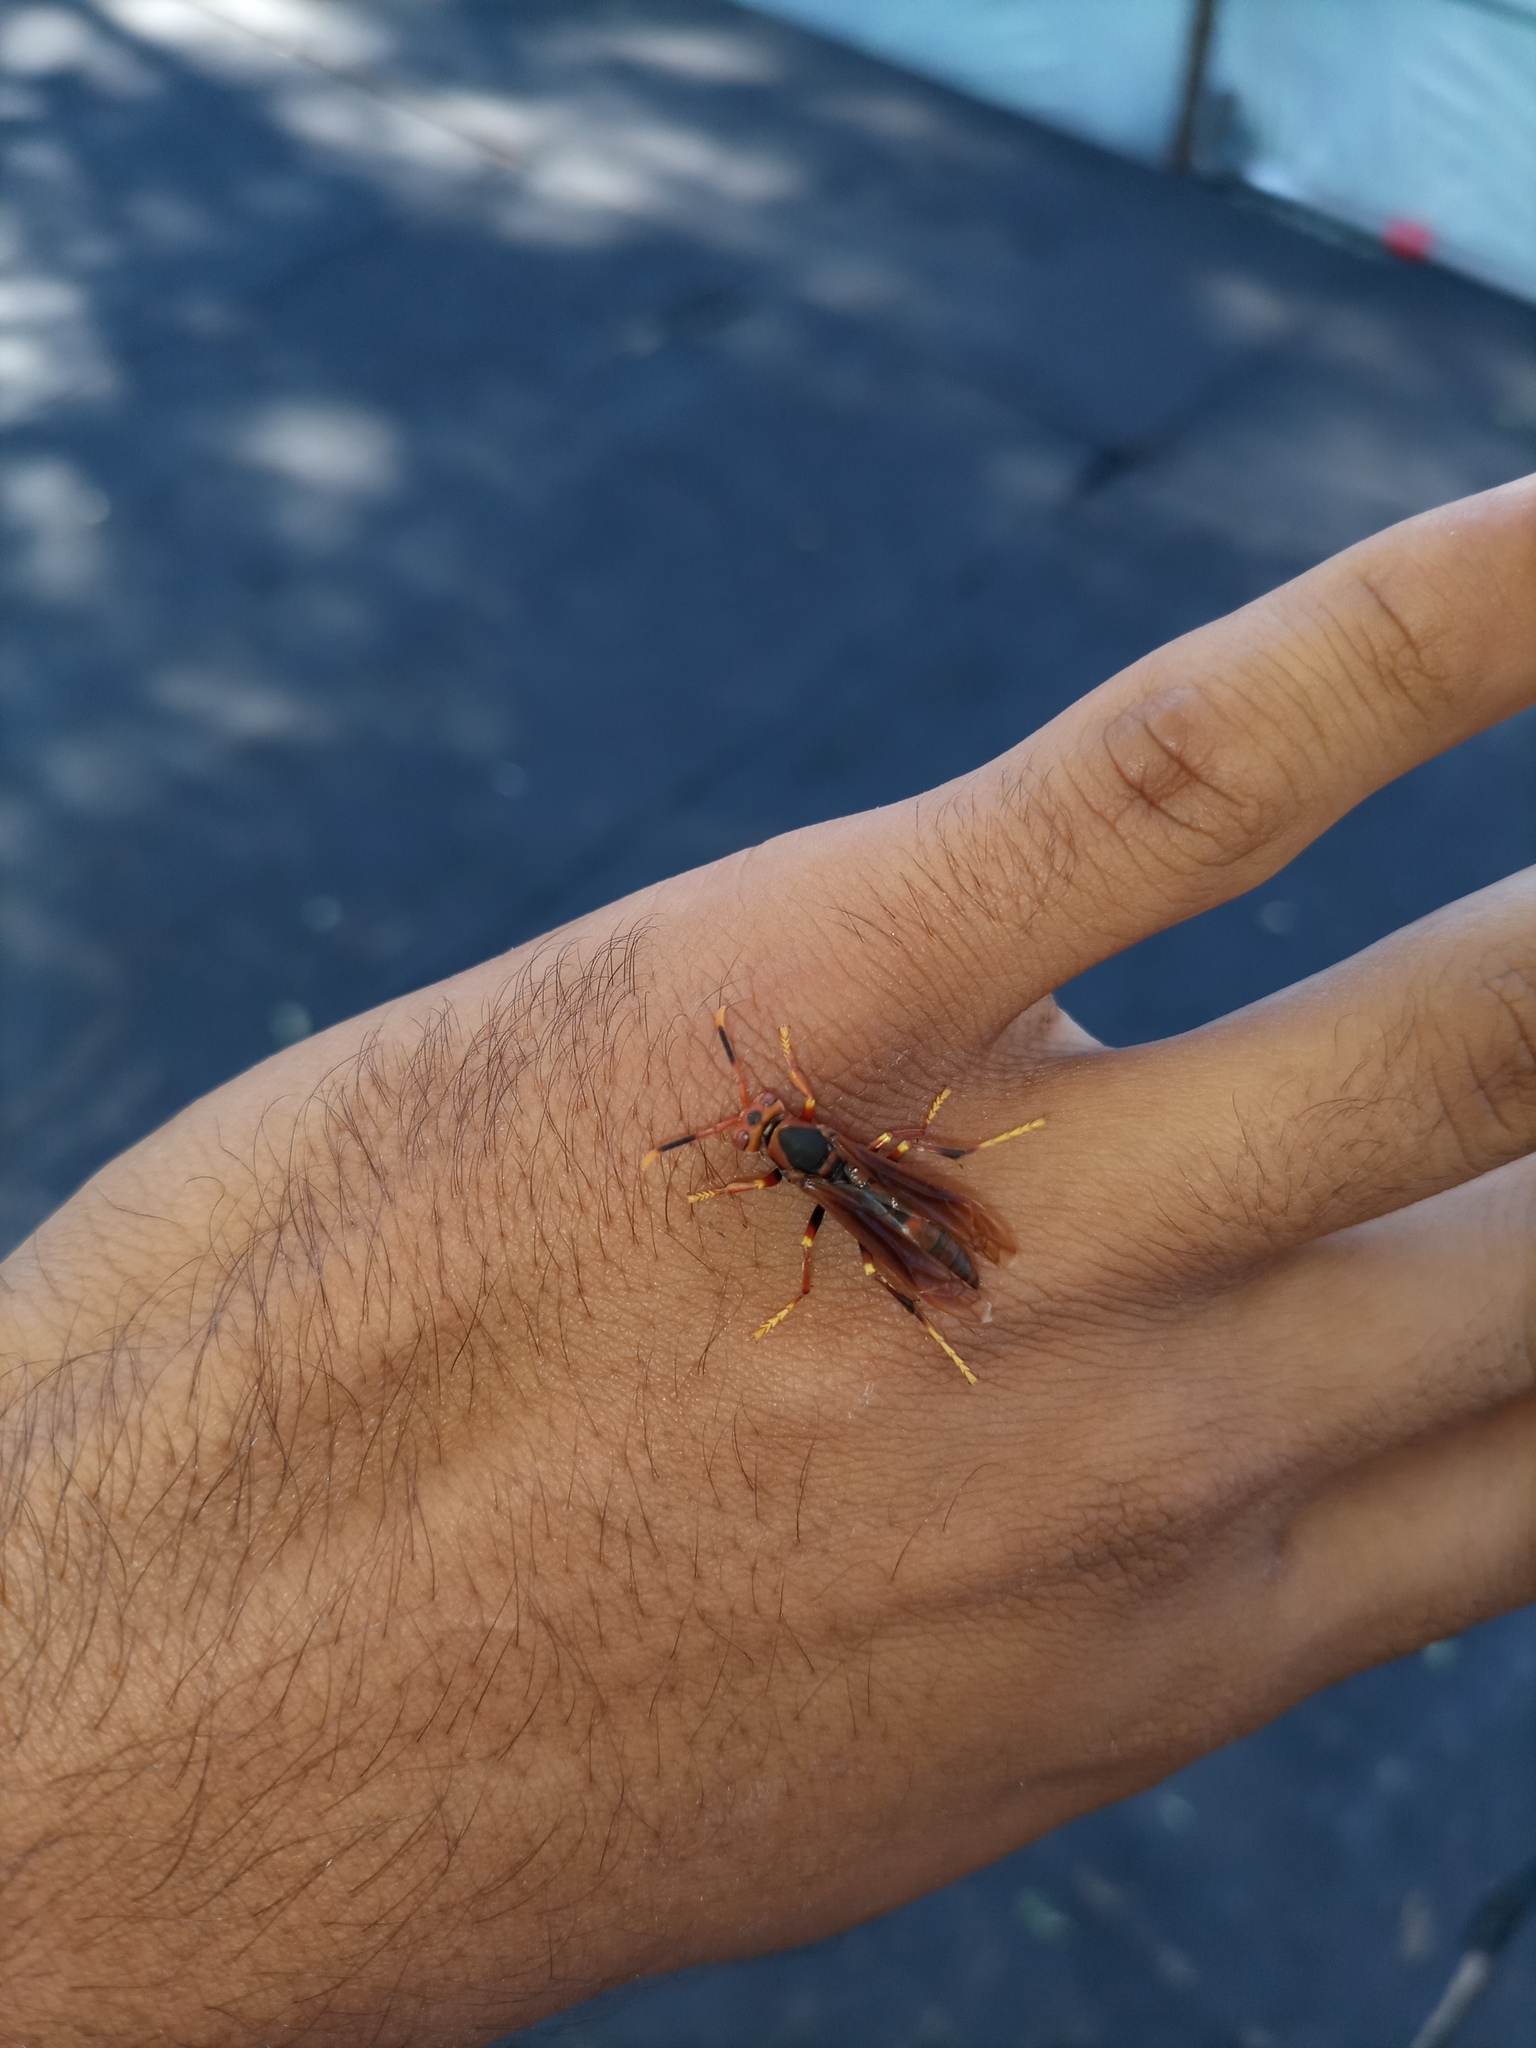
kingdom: Animalia
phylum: Arthropoda
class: Insecta
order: Hymenoptera
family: Pompilidae
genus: Aphanilopterus
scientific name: Aphanilopterus
